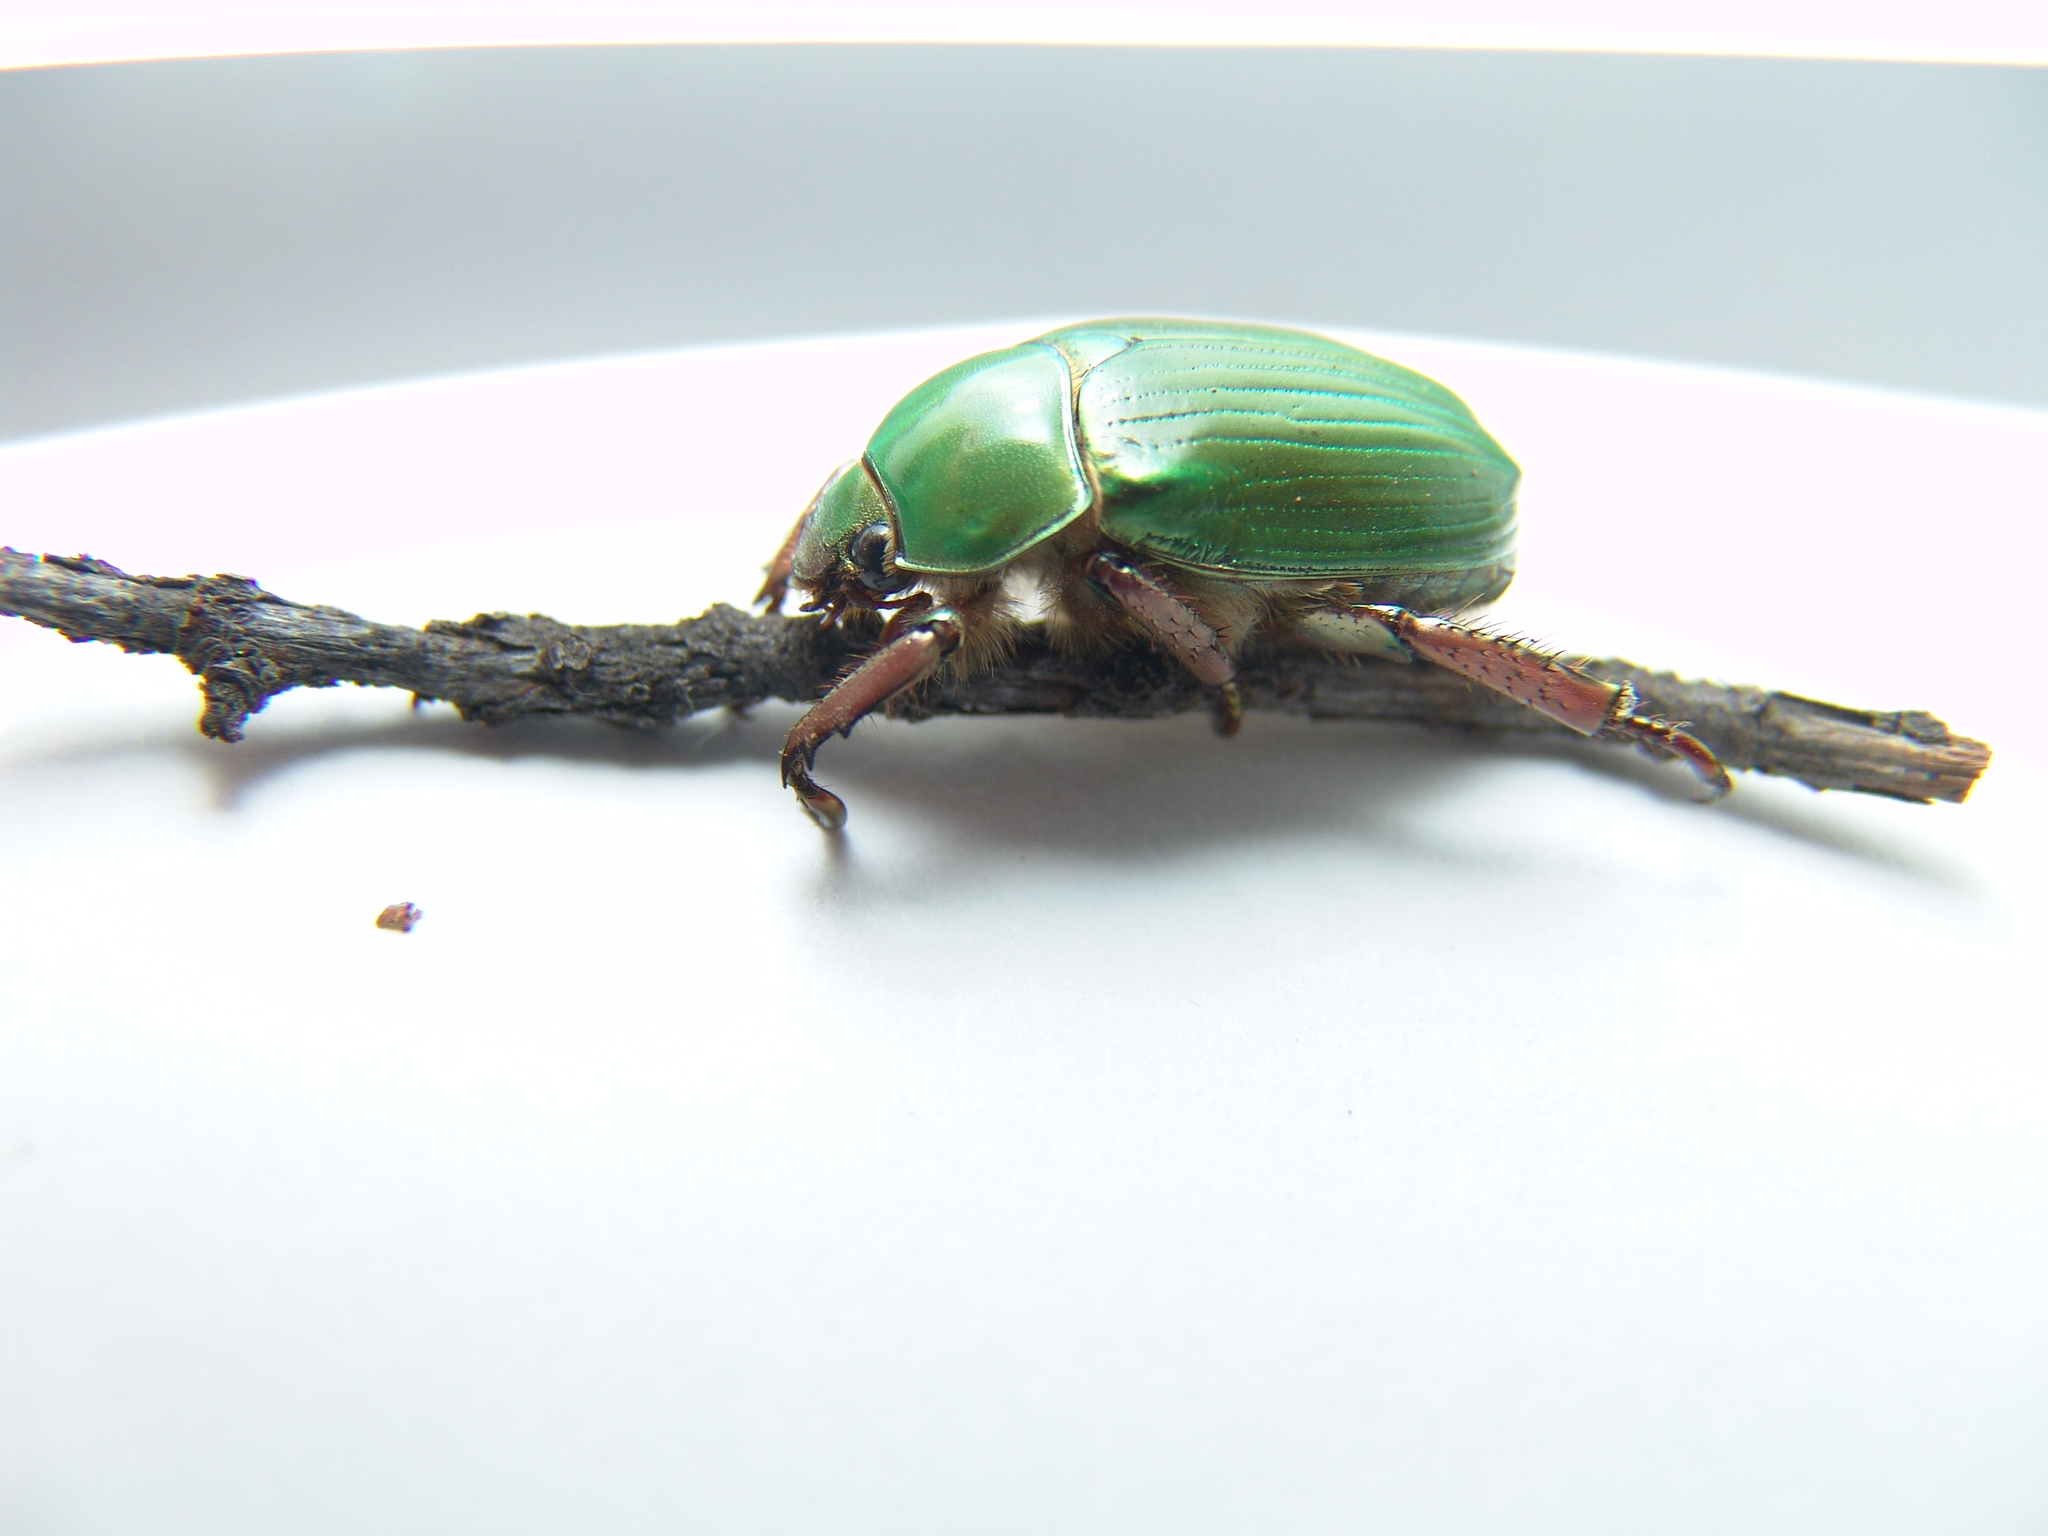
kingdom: Animalia
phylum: Arthropoda
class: Insecta
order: Coleoptera
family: Scarabaeidae
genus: Chrysina
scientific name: Chrysina lecontei
